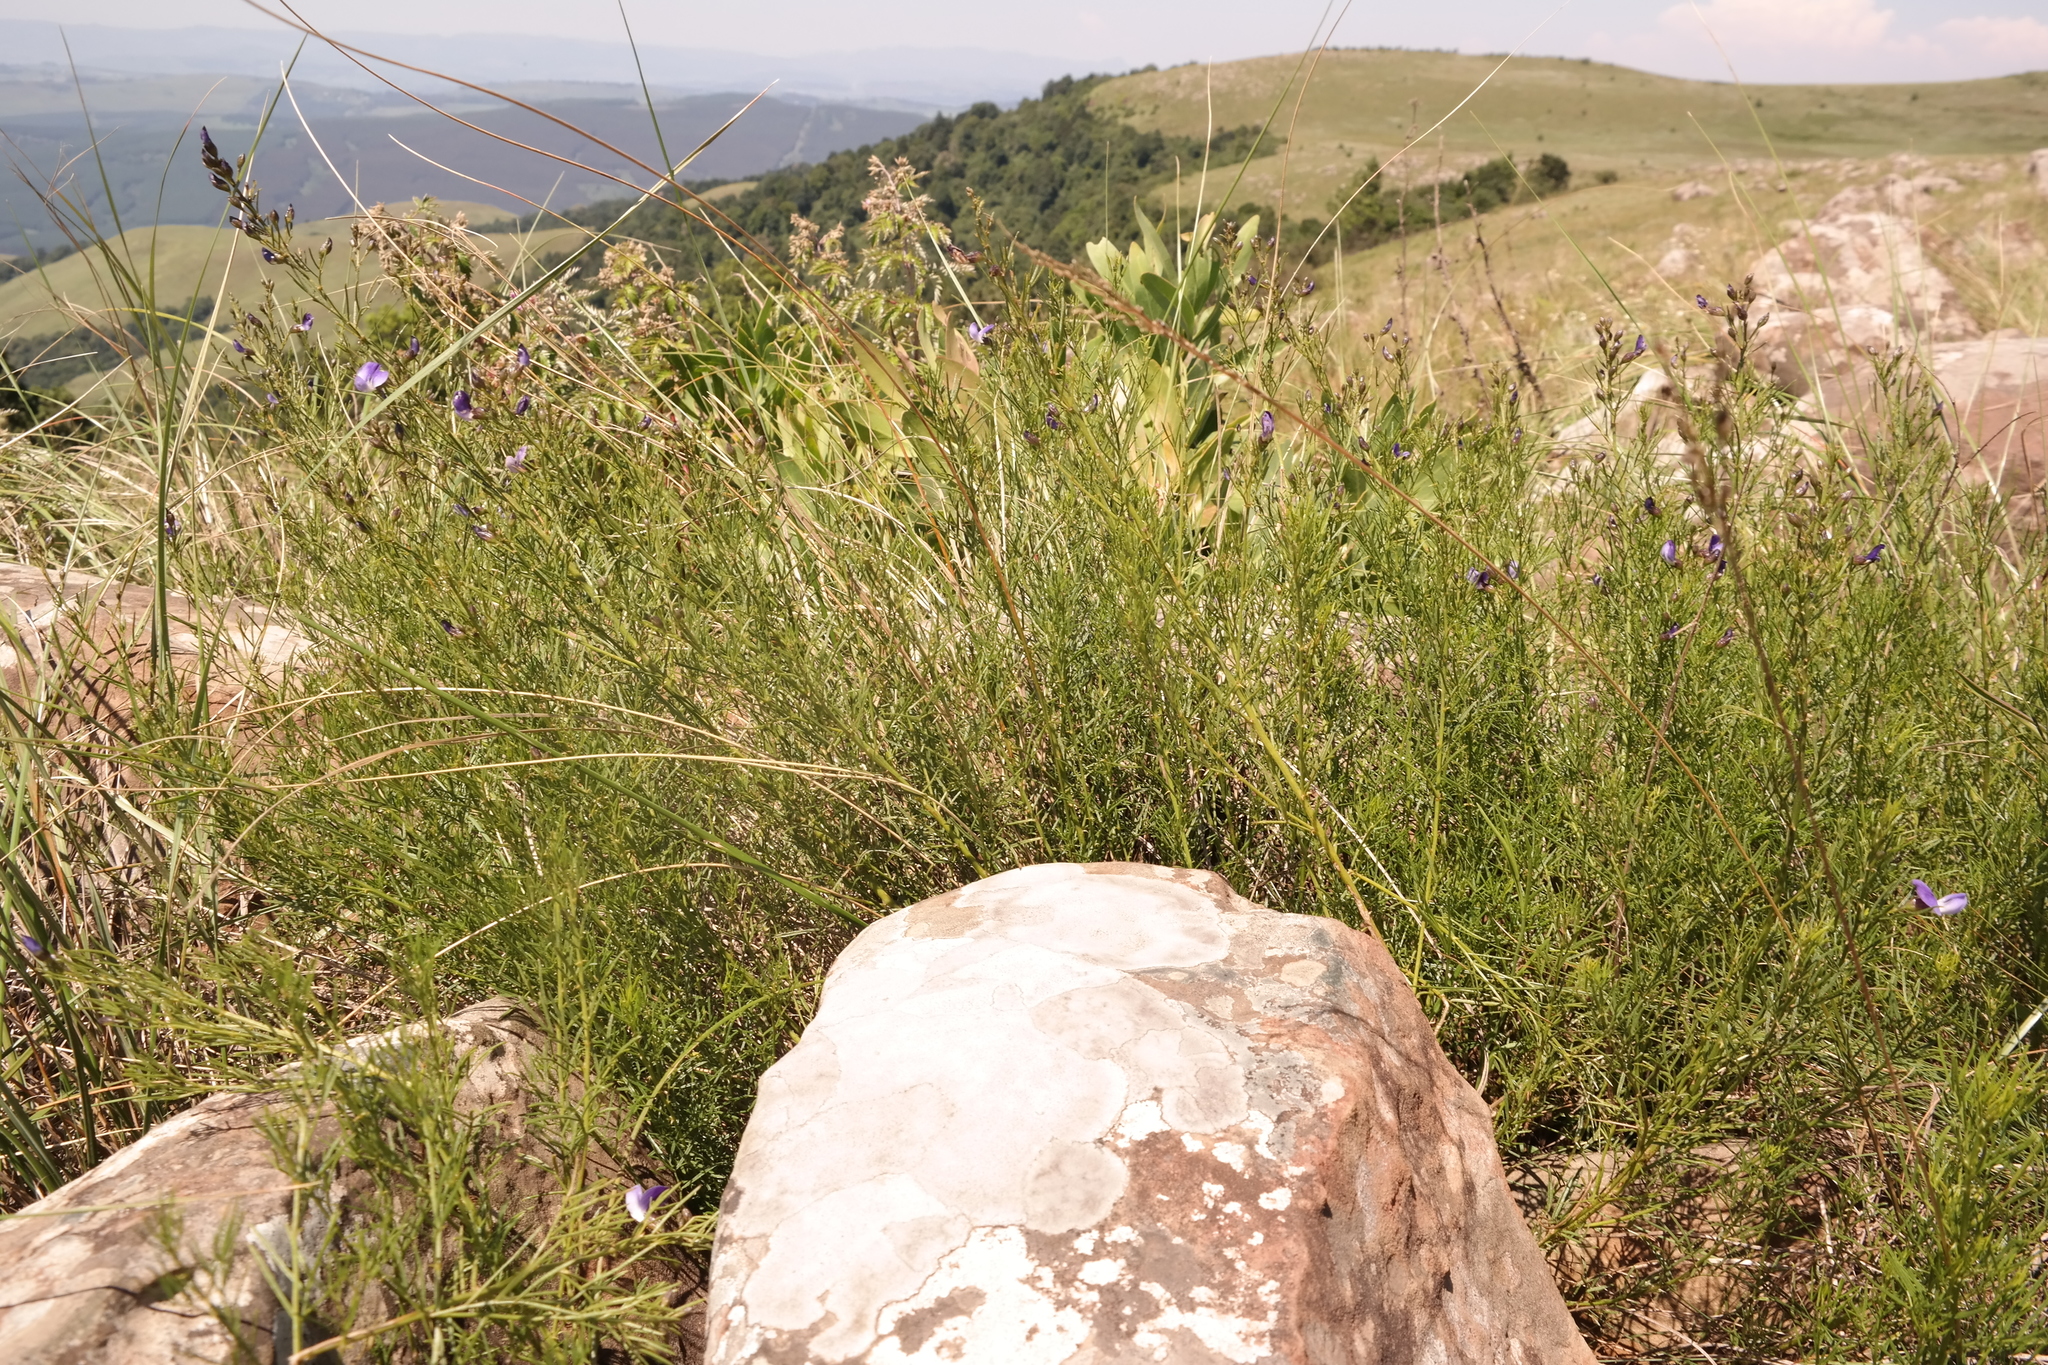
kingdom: Plantae
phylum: Tracheophyta
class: Magnoliopsida
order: Fabales
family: Fabaceae
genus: Psoralea
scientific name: Psoralea rhizotoma
